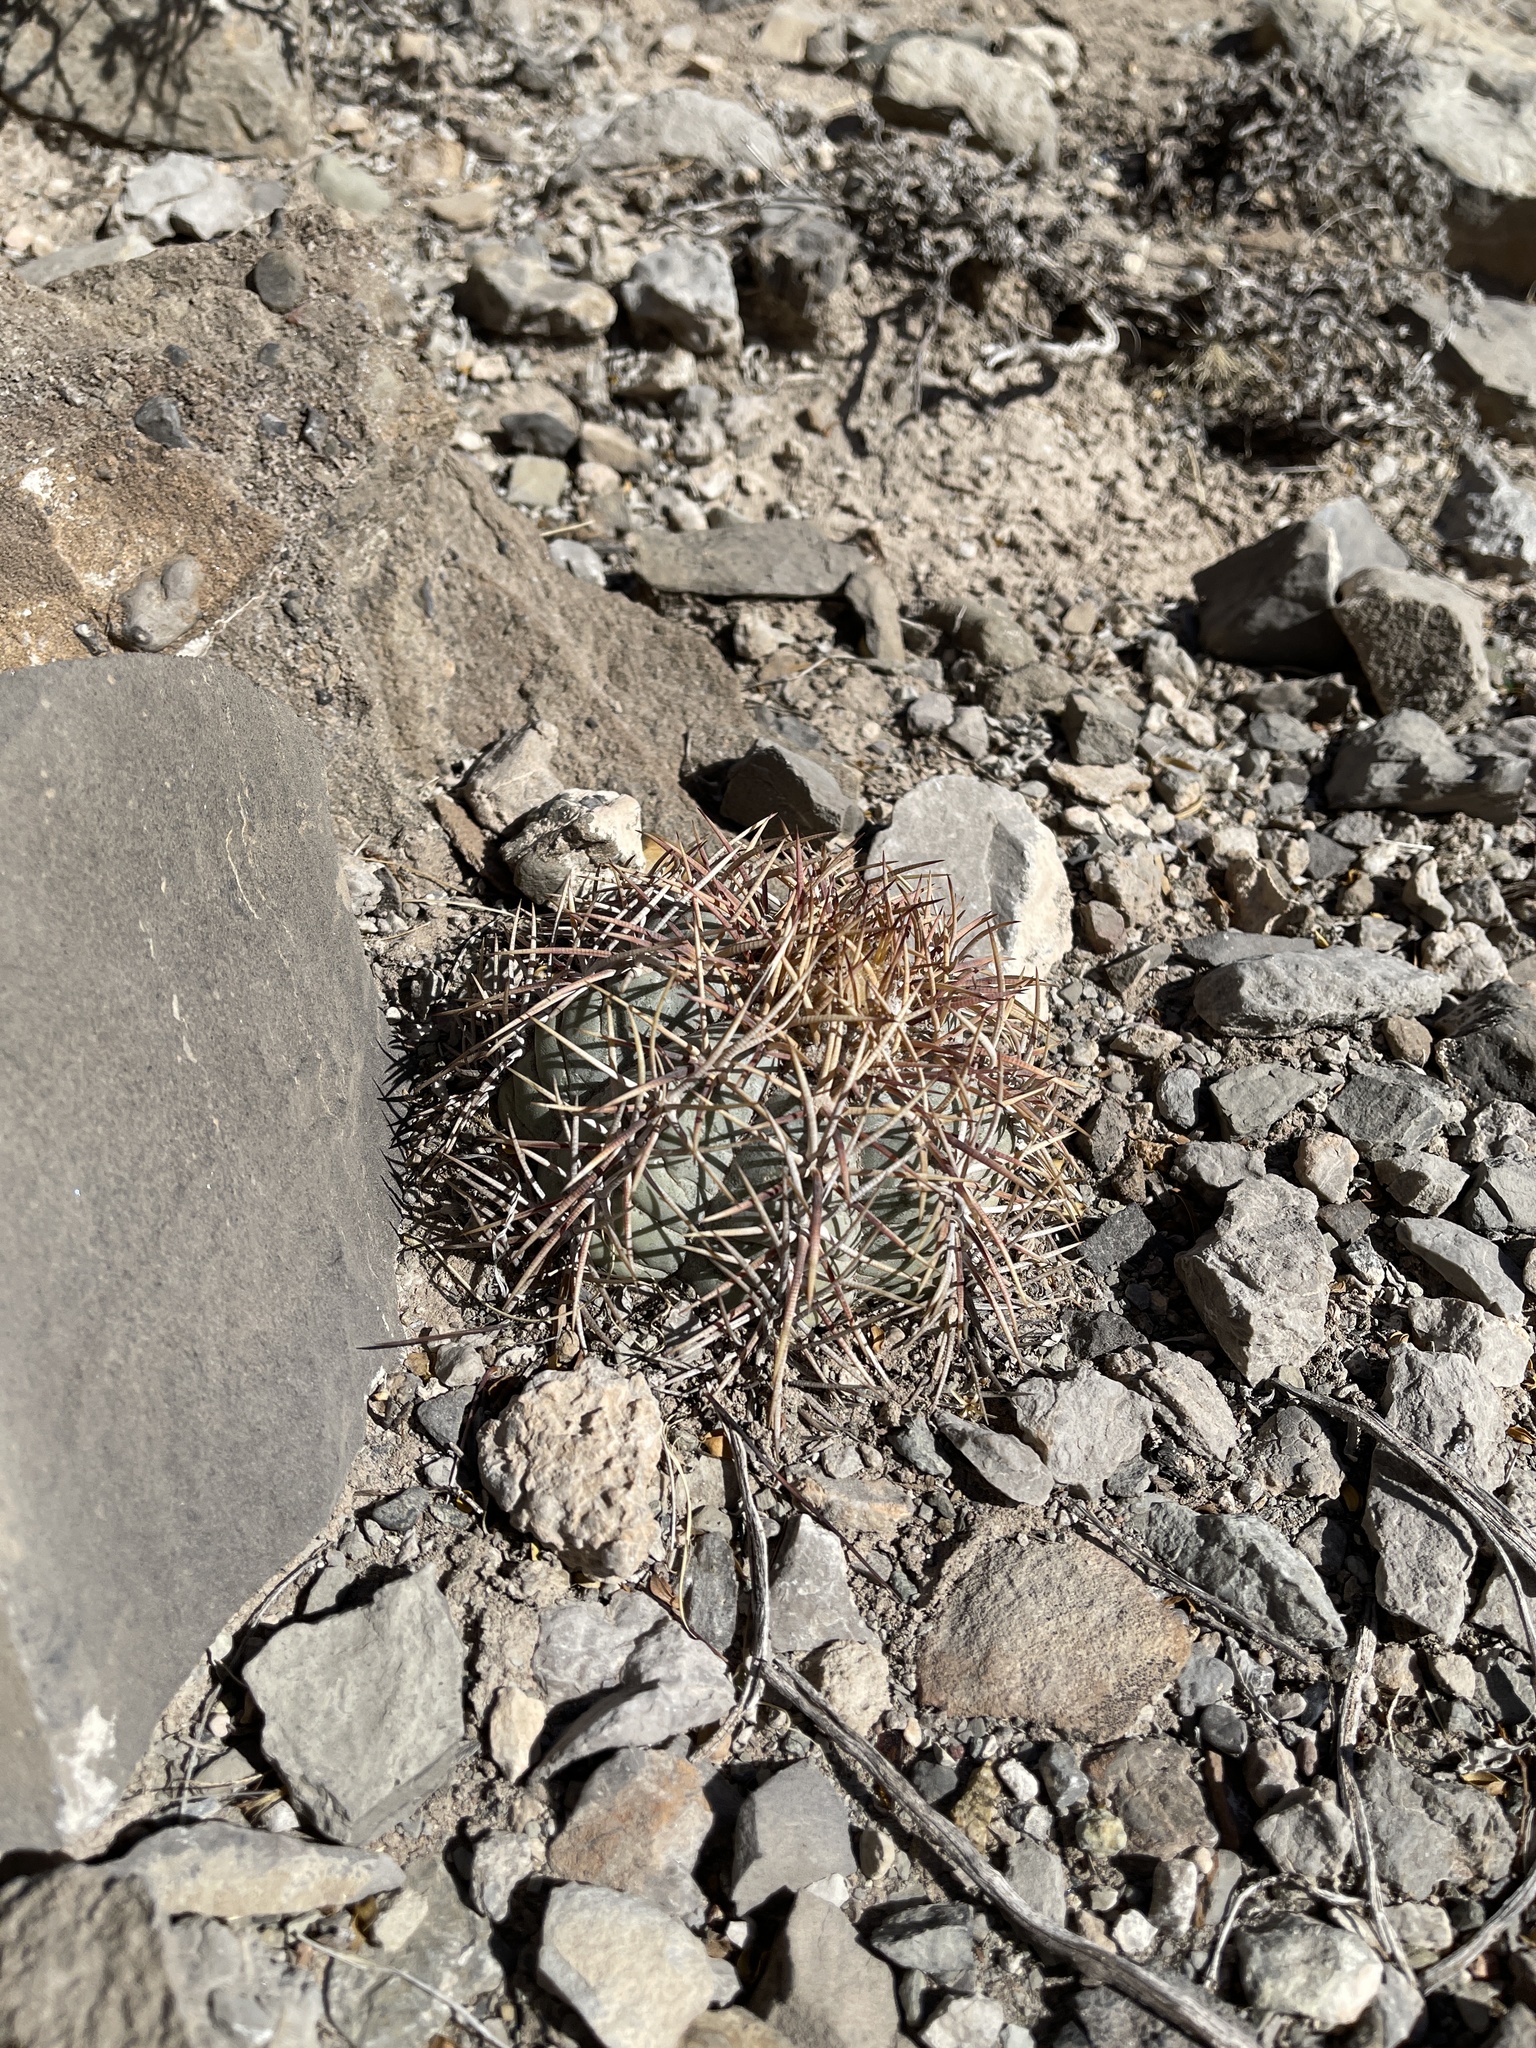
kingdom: Plantae
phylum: Tracheophyta
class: Magnoliopsida
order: Caryophyllales
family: Cactaceae
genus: Echinocactus
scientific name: Echinocactus horizonthalonius
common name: Devilshead
